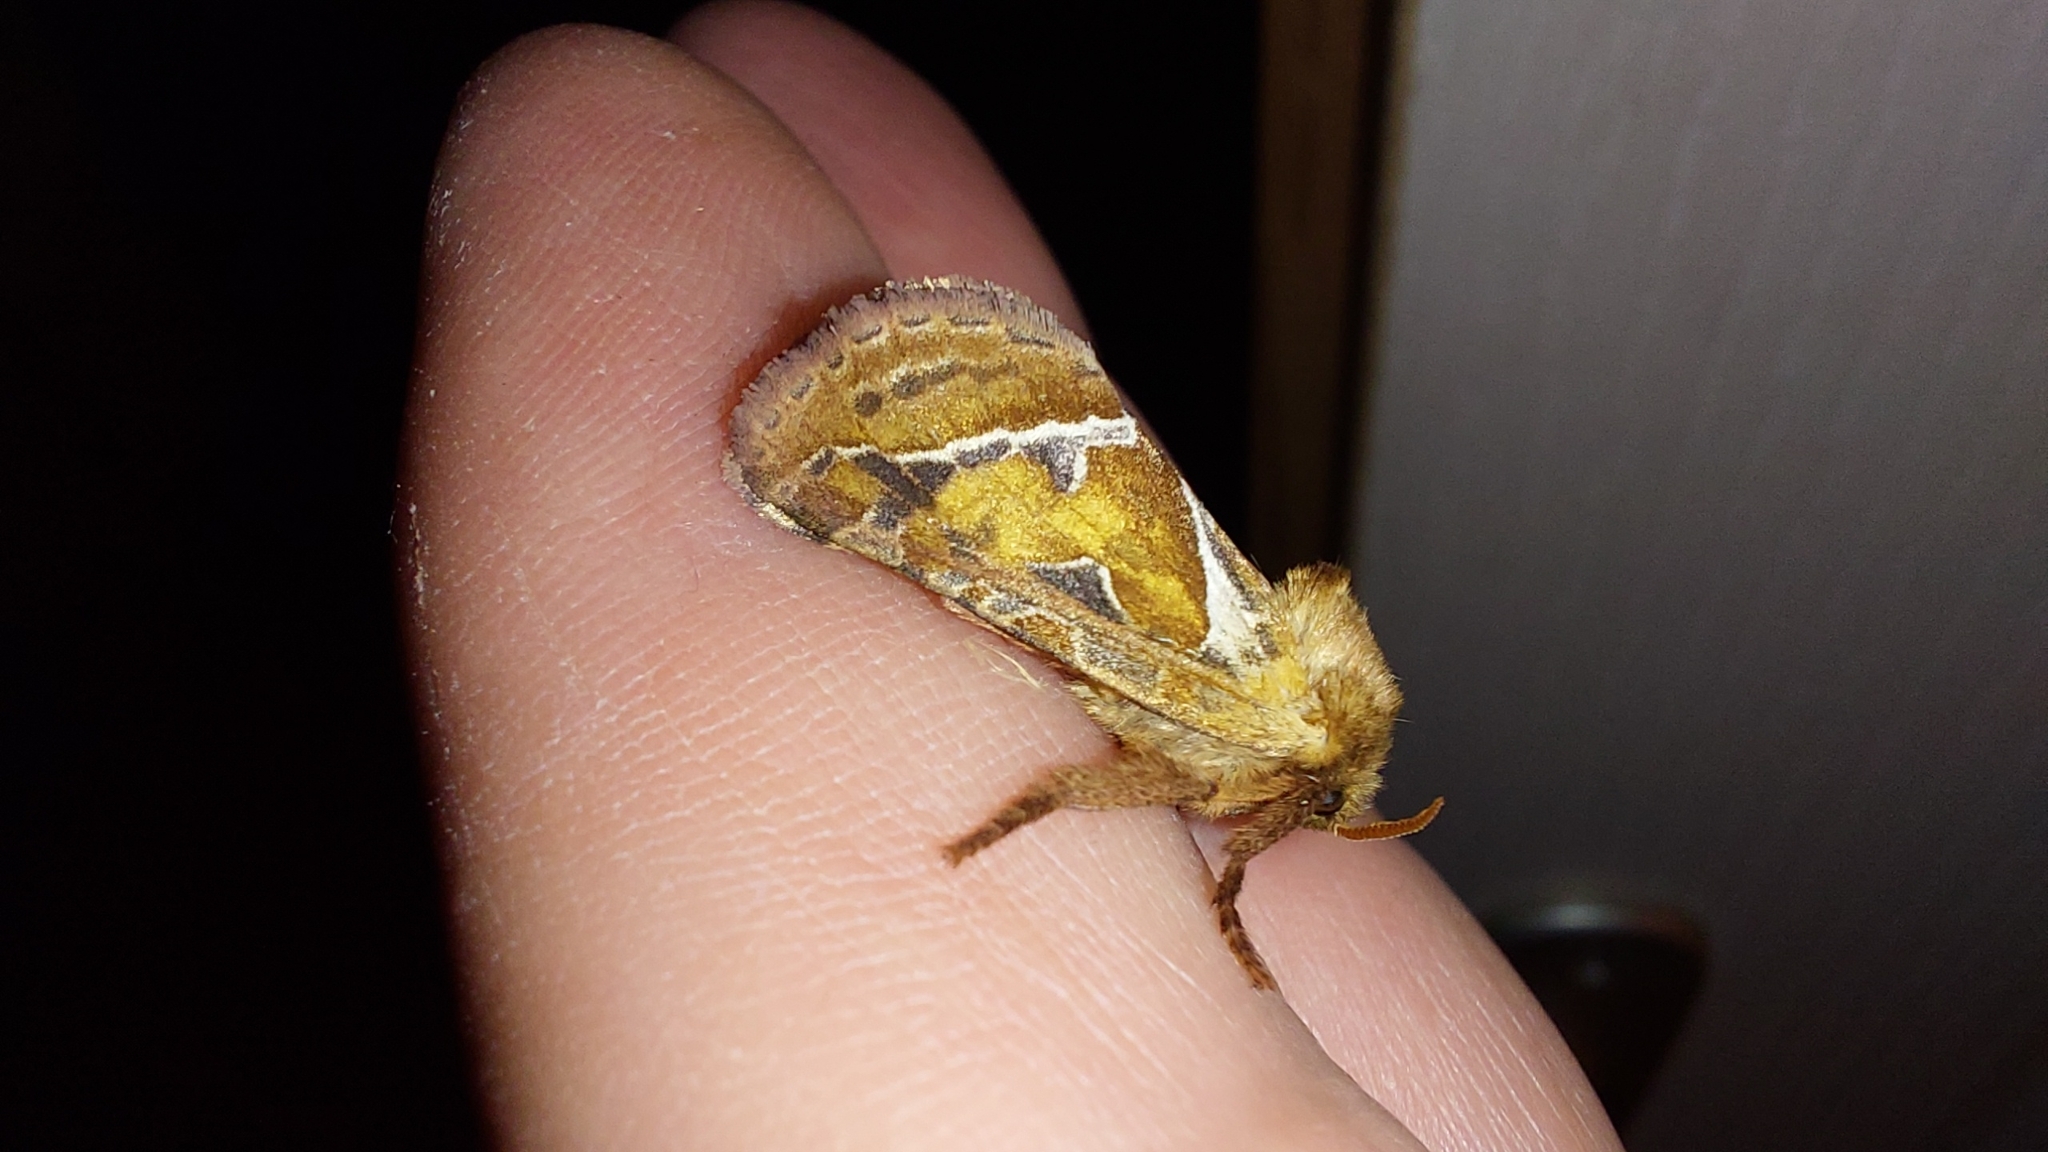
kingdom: Animalia
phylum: Arthropoda
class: Insecta
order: Lepidoptera
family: Hepialidae
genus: Triodia
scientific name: Triodia sylvina
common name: Orange swift
